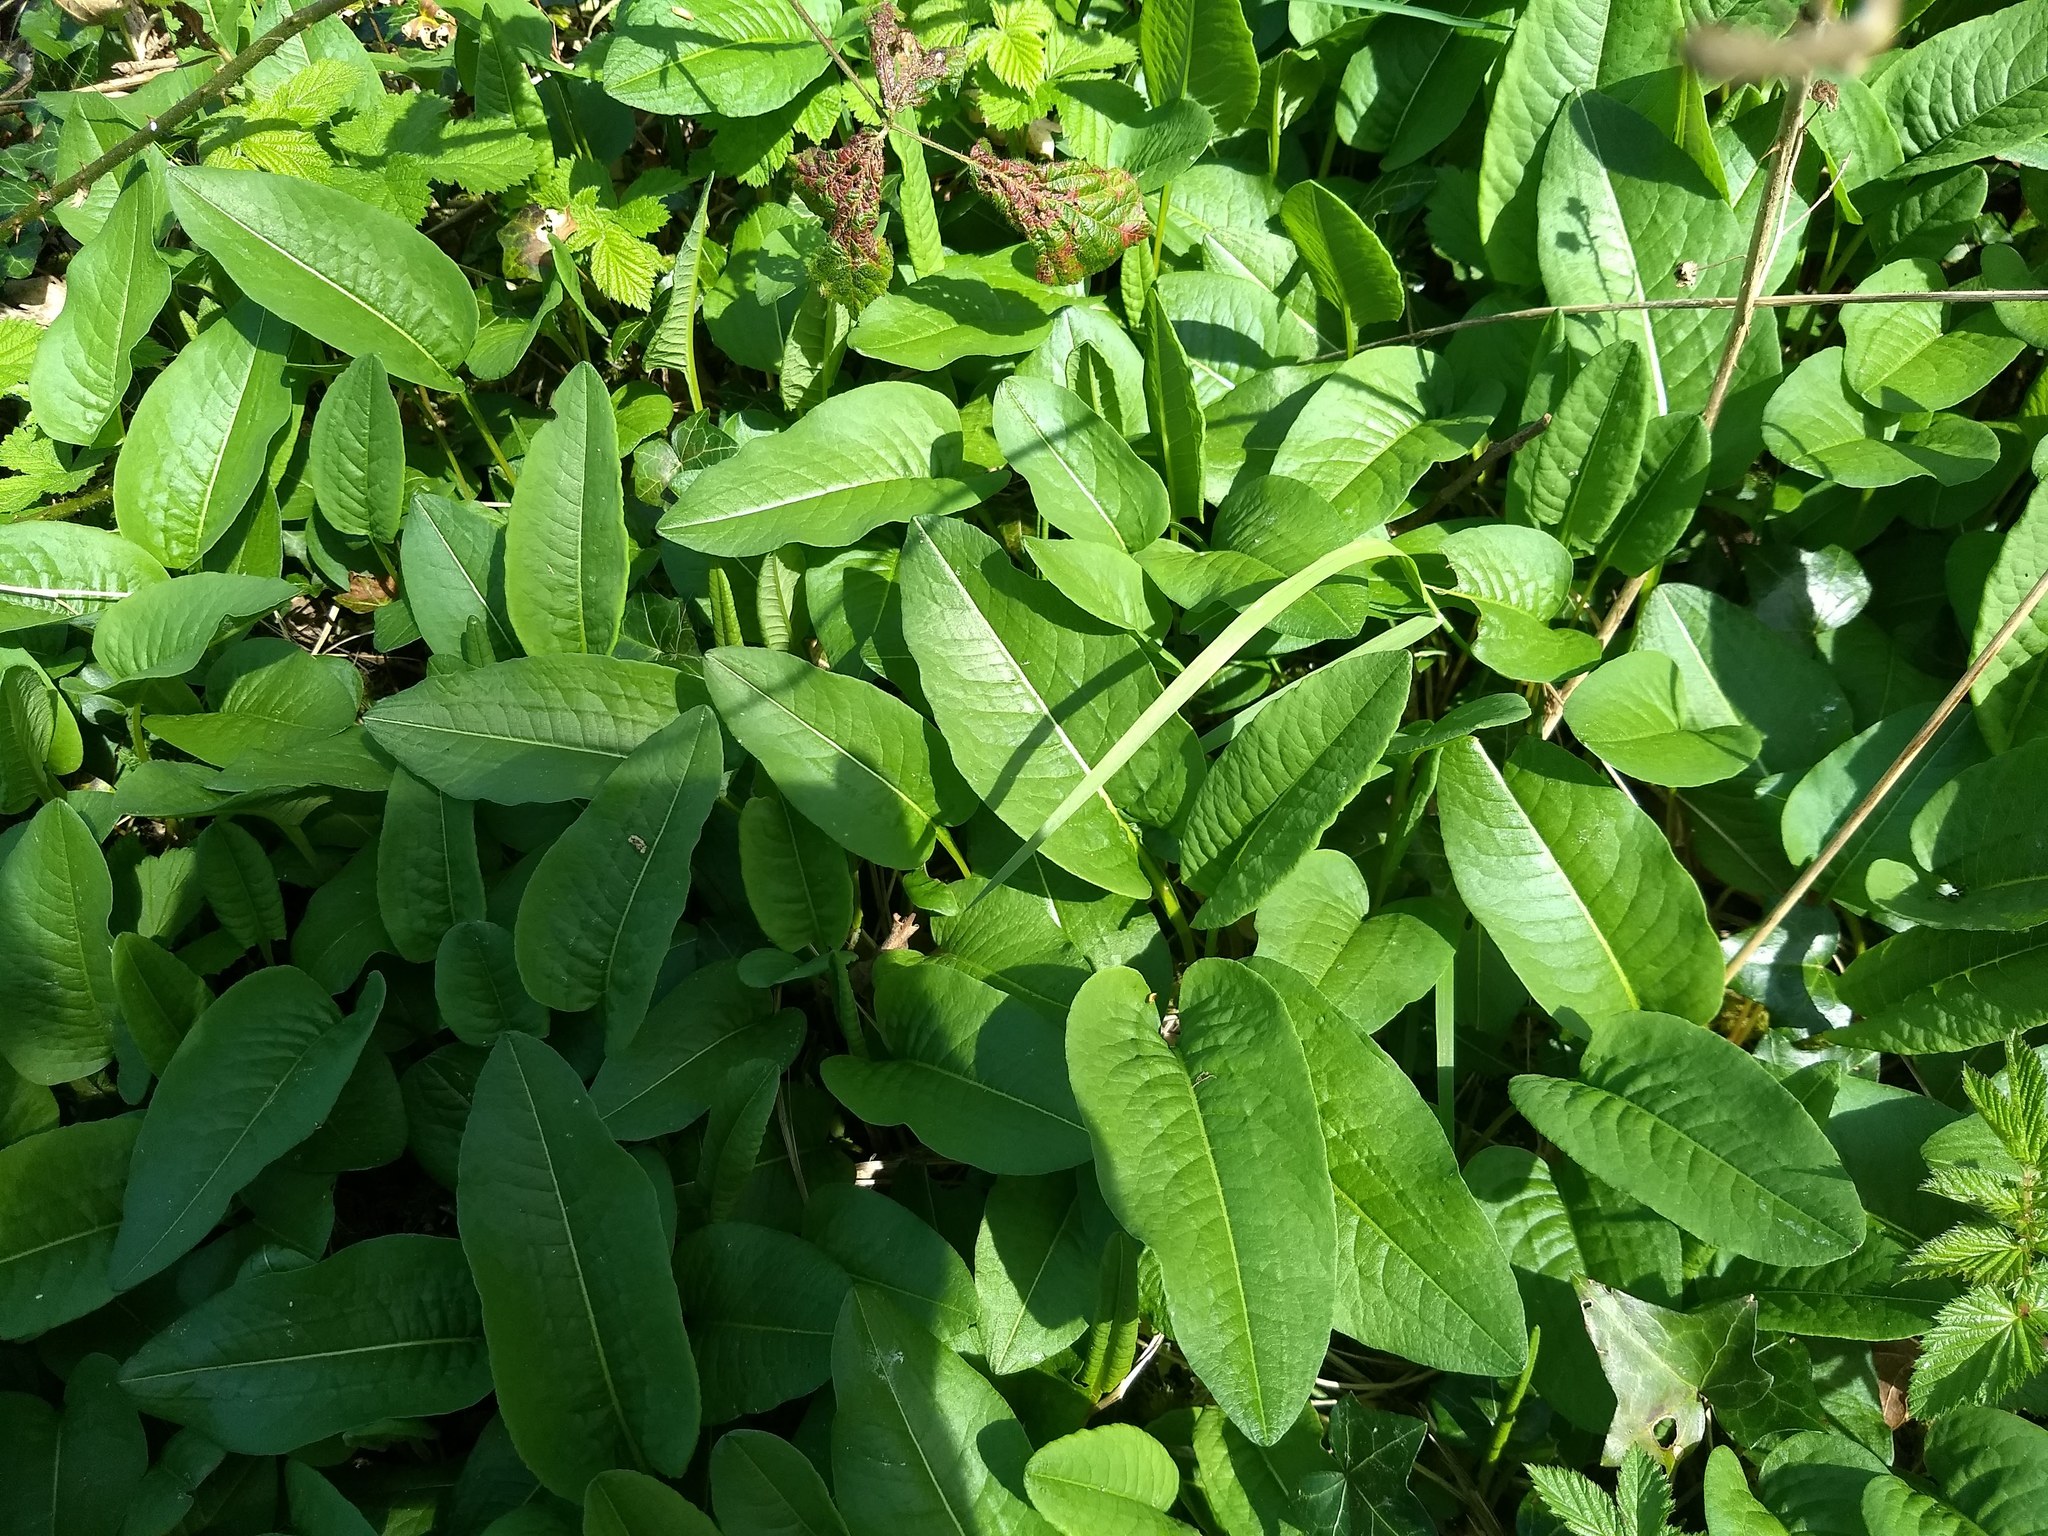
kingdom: Plantae
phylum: Tracheophyta
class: Magnoliopsida
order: Caryophyllales
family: Polygonaceae
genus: Bistorta
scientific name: Bistorta officinalis
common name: Common bistort
